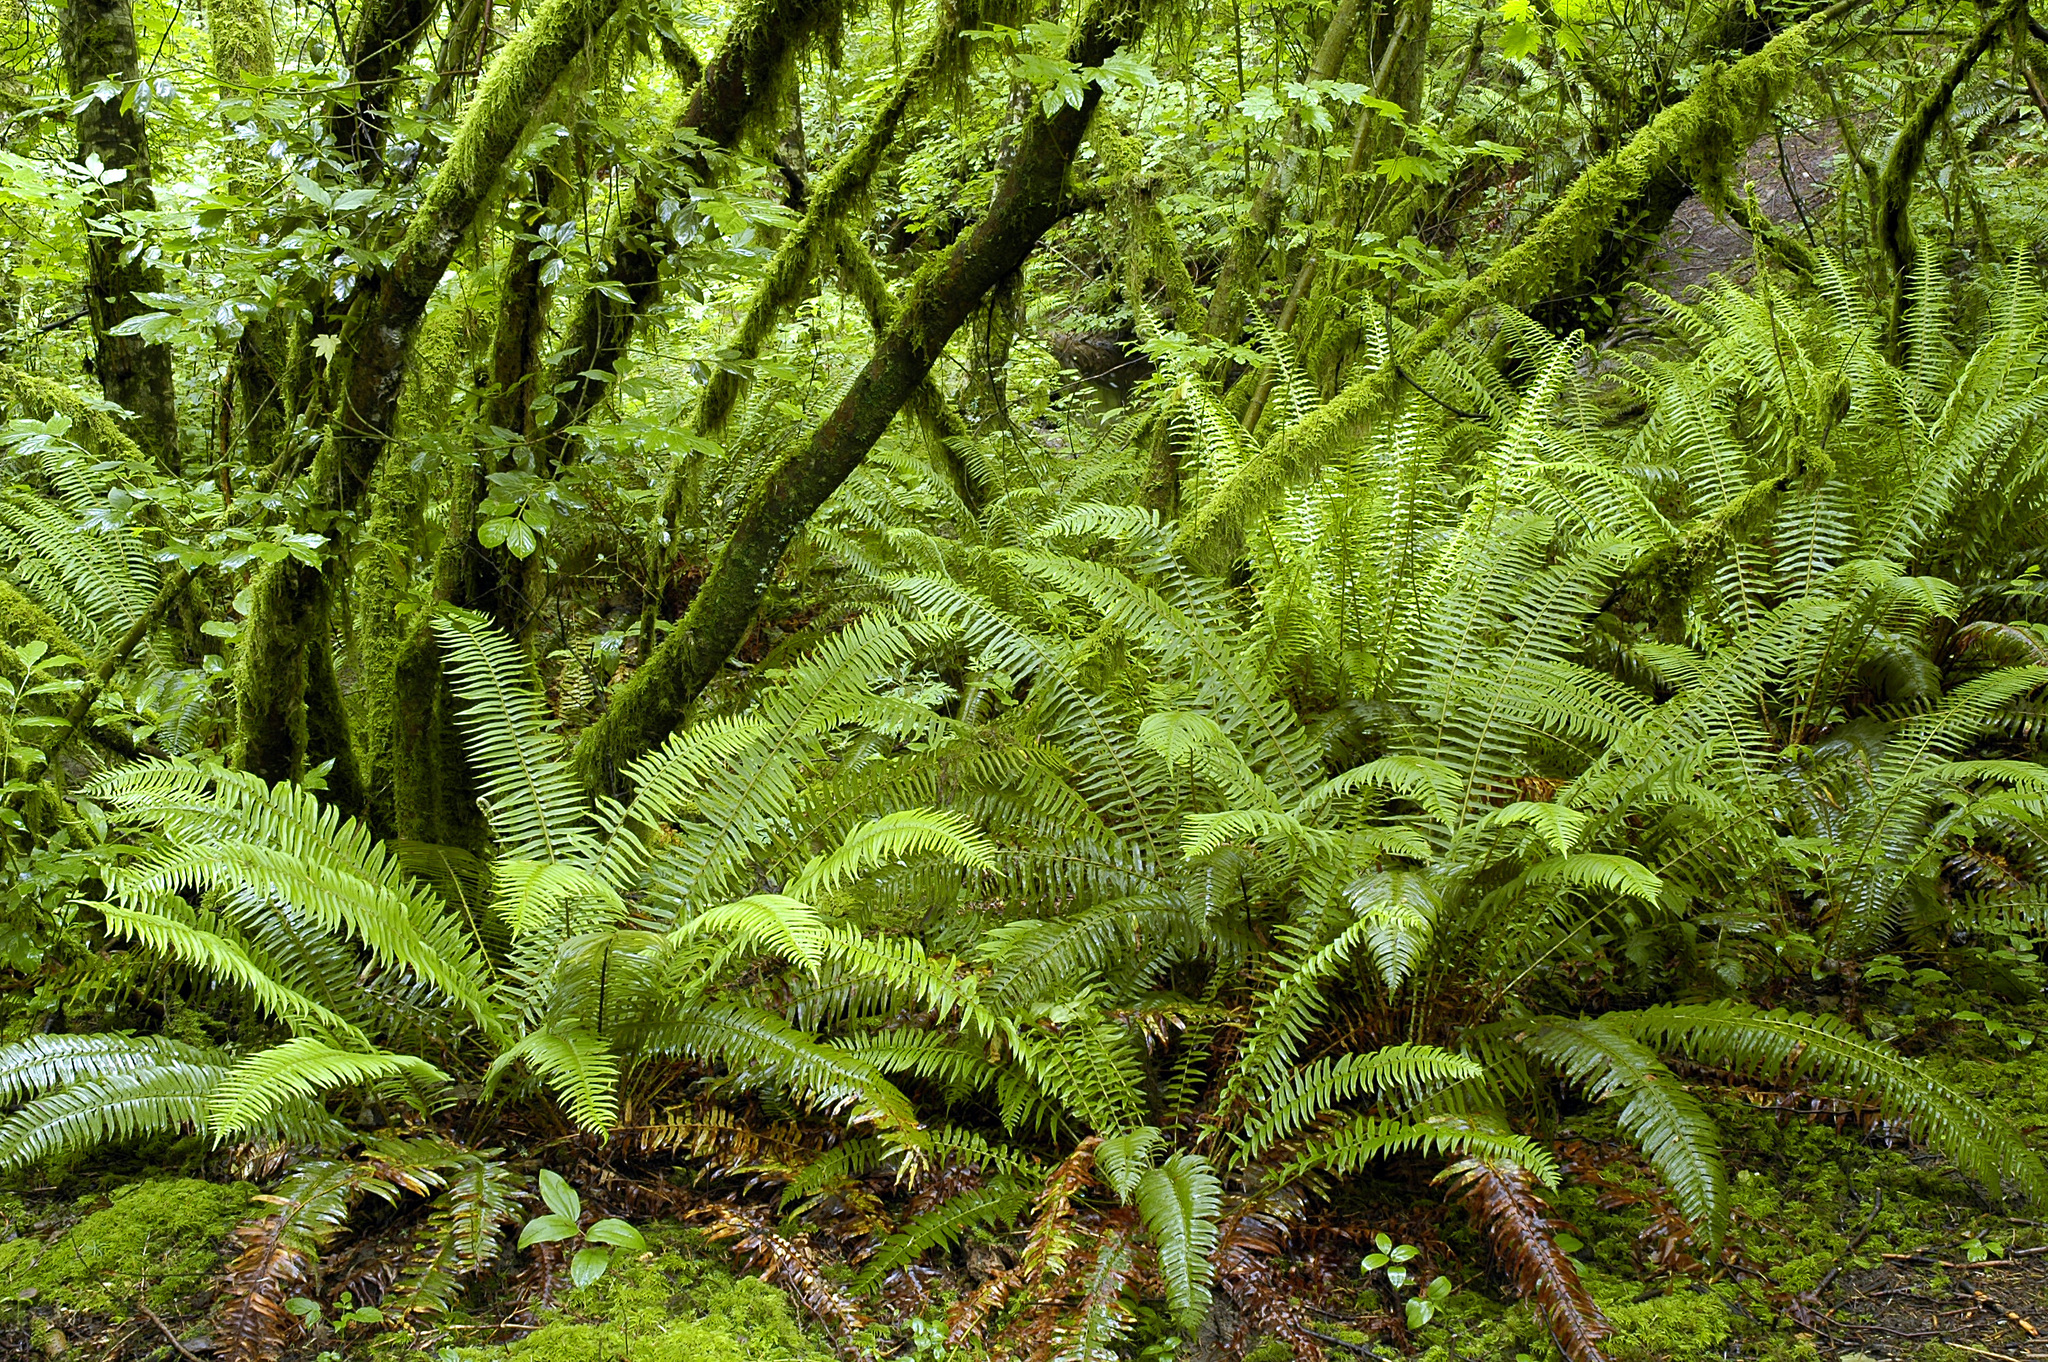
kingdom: Plantae
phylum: Tracheophyta
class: Polypodiopsida
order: Polypodiales
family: Dryopteridaceae
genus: Polystichum
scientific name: Polystichum munitum
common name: Western sword-fern
